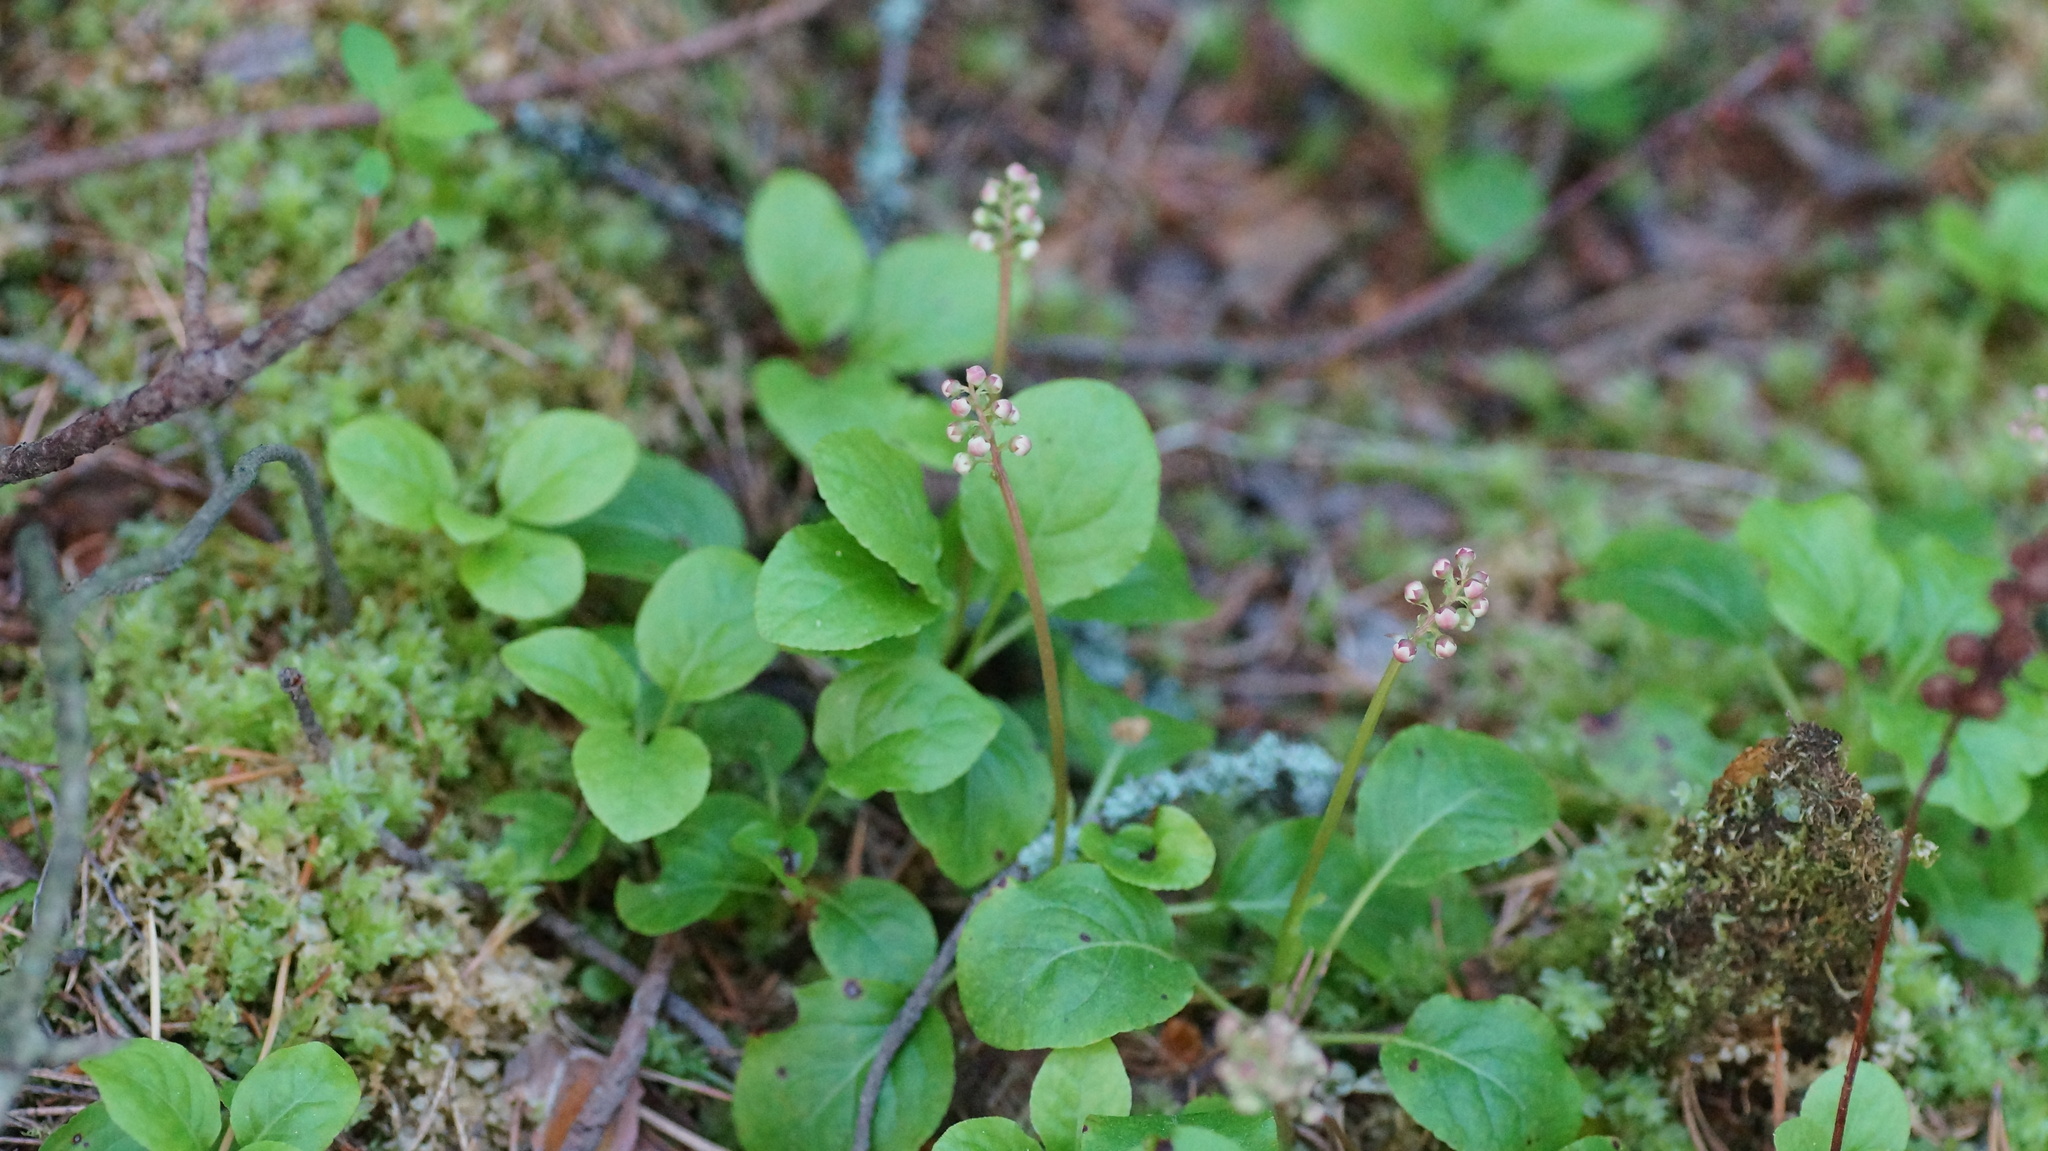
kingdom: Plantae
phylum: Tracheophyta
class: Magnoliopsida
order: Ericales
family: Ericaceae
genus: Pyrola
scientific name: Pyrola minor
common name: Common wintergreen
